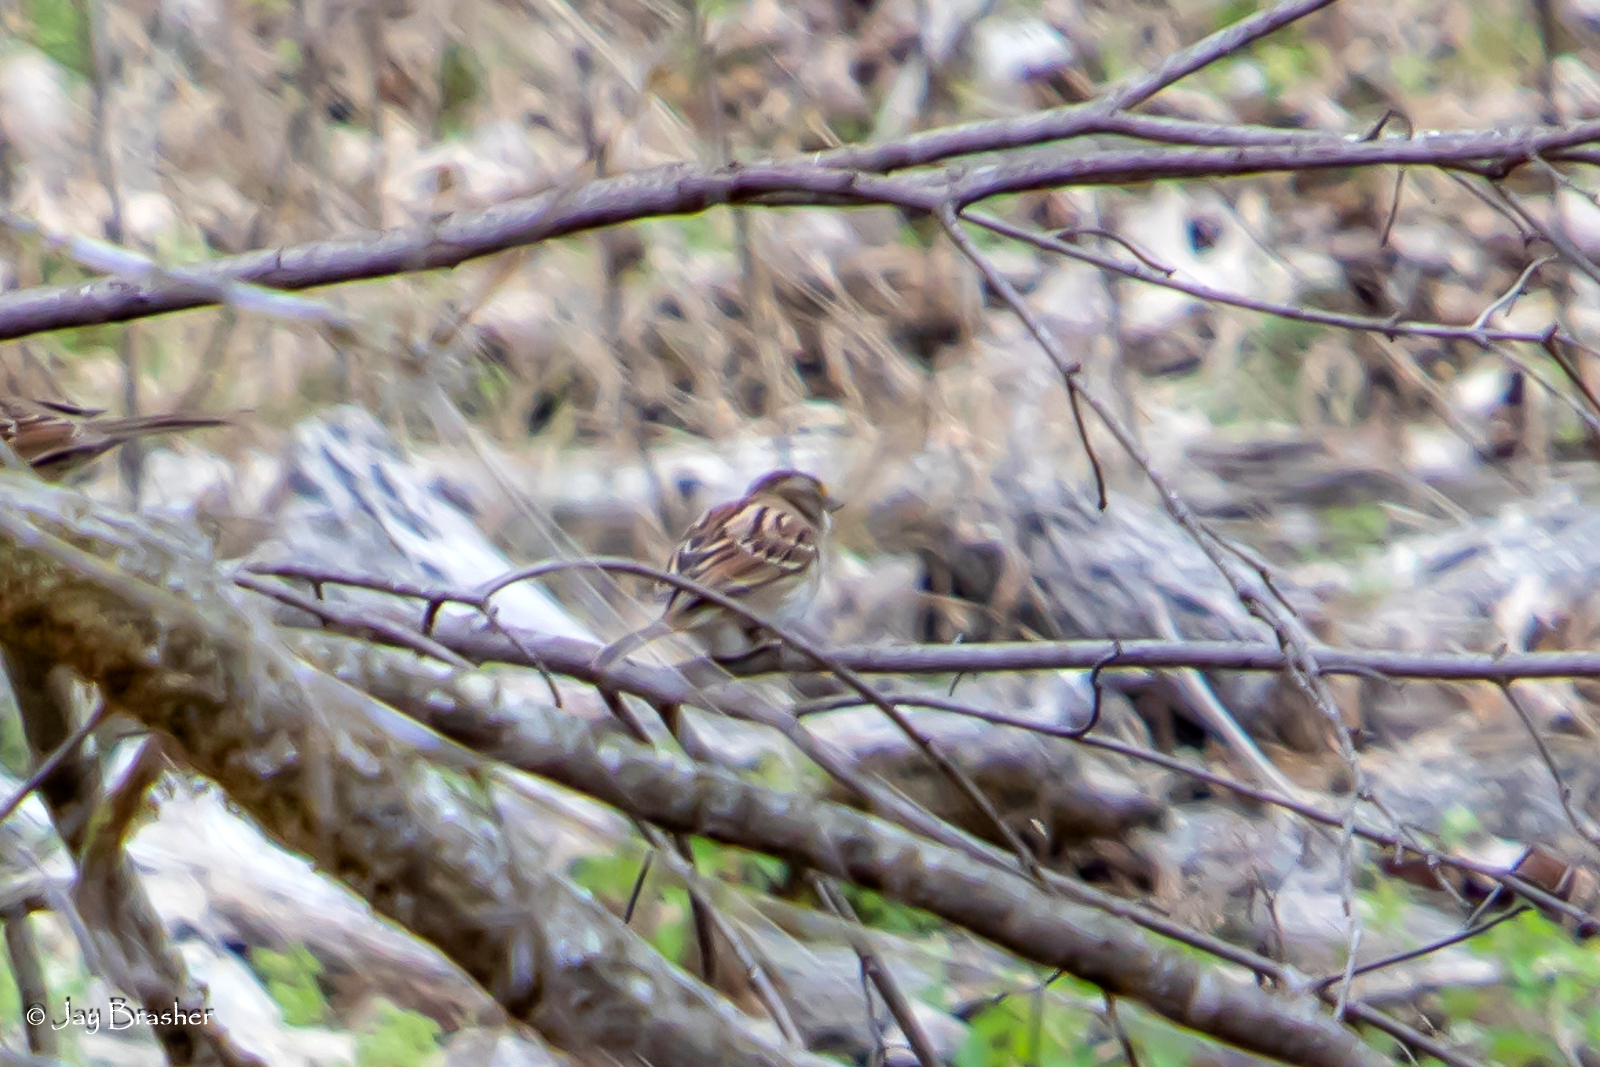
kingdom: Animalia
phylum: Chordata
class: Aves
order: Passeriformes
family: Passerellidae
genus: Zonotrichia
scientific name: Zonotrichia albicollis
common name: White-throated sparrow
